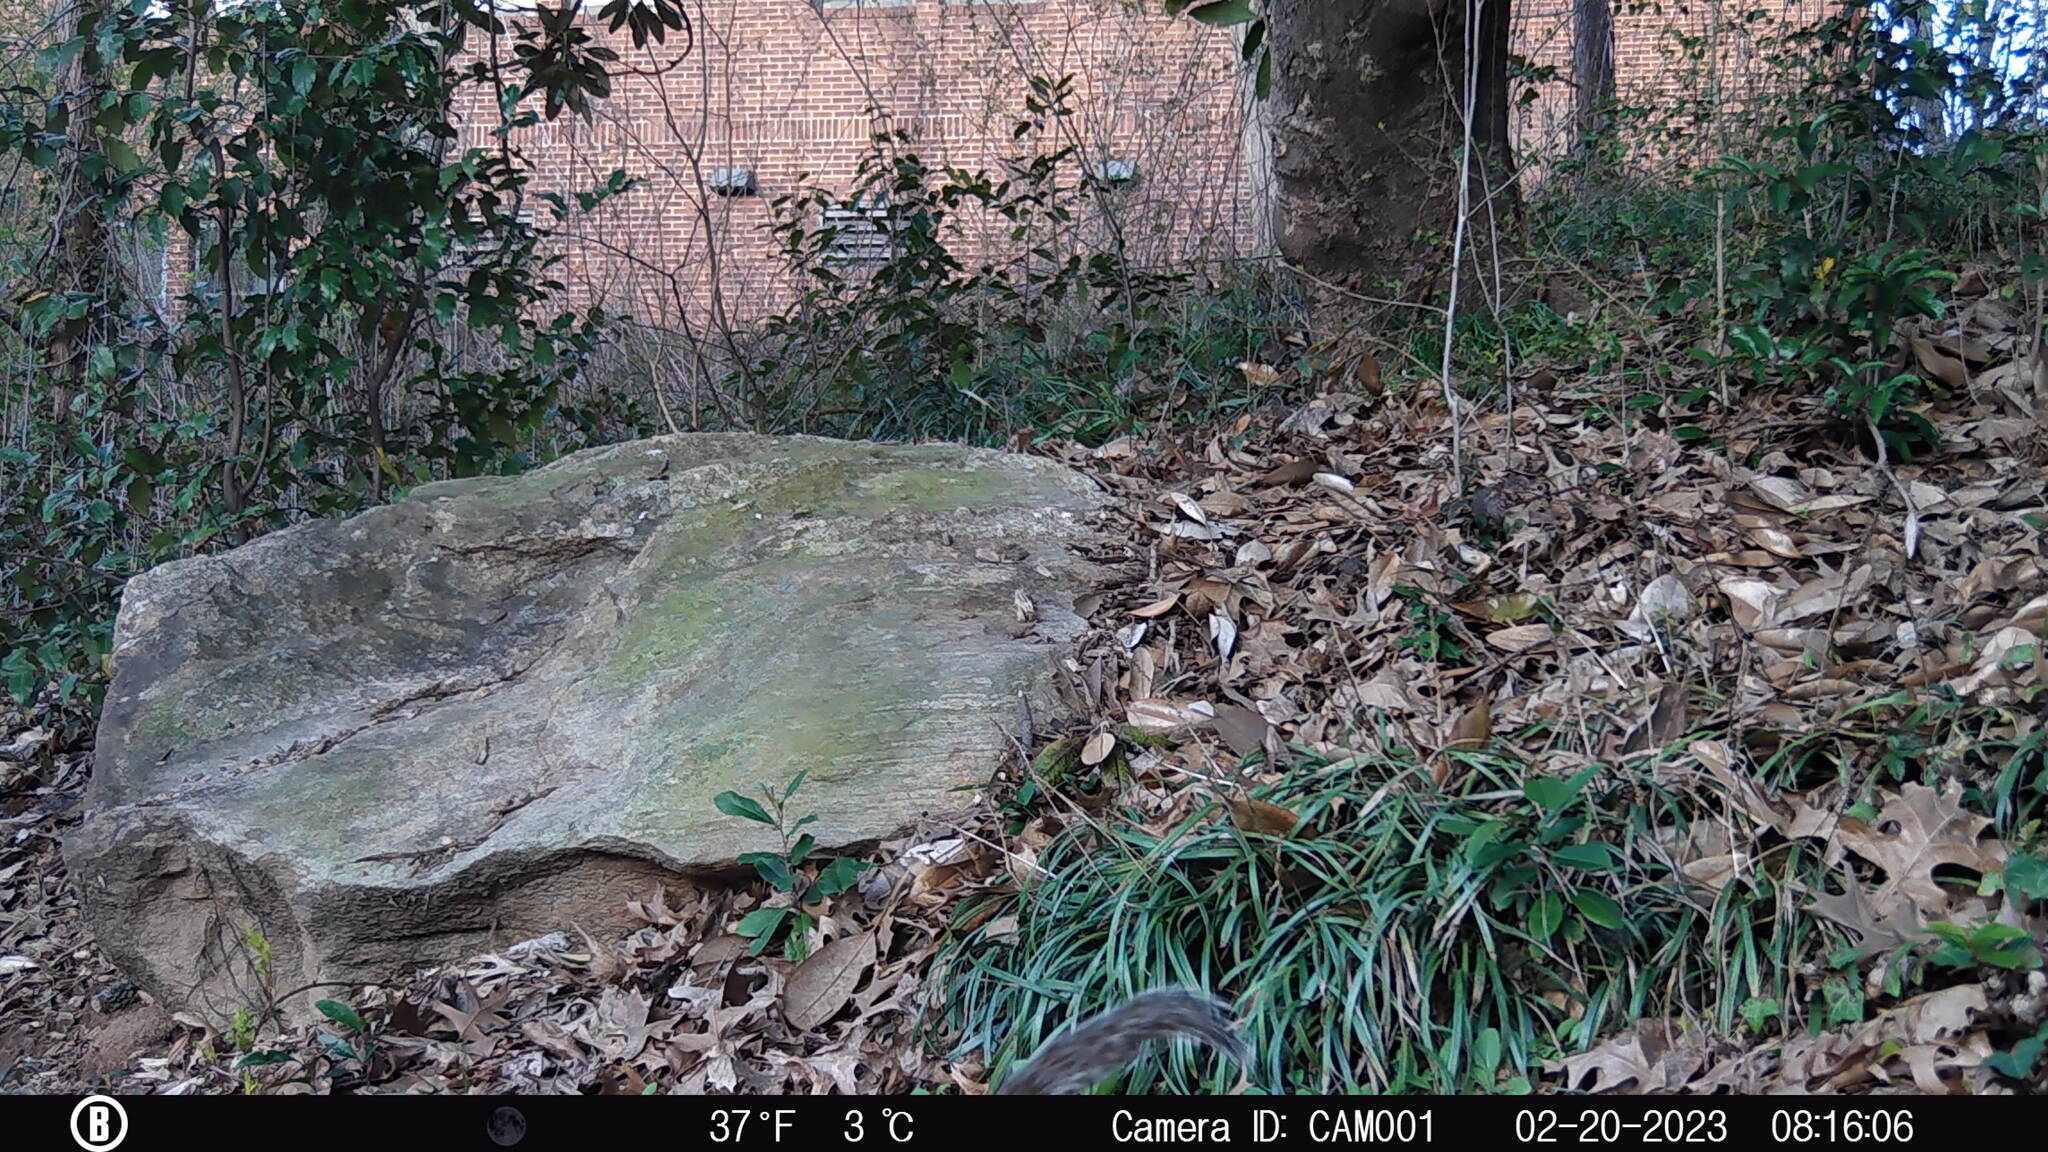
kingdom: Animalia
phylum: Chordata
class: Mammalia
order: Rodentia
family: Sciuridae
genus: Sciurus
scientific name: Sciurus carolinensis
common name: Eastern gray squirrel
